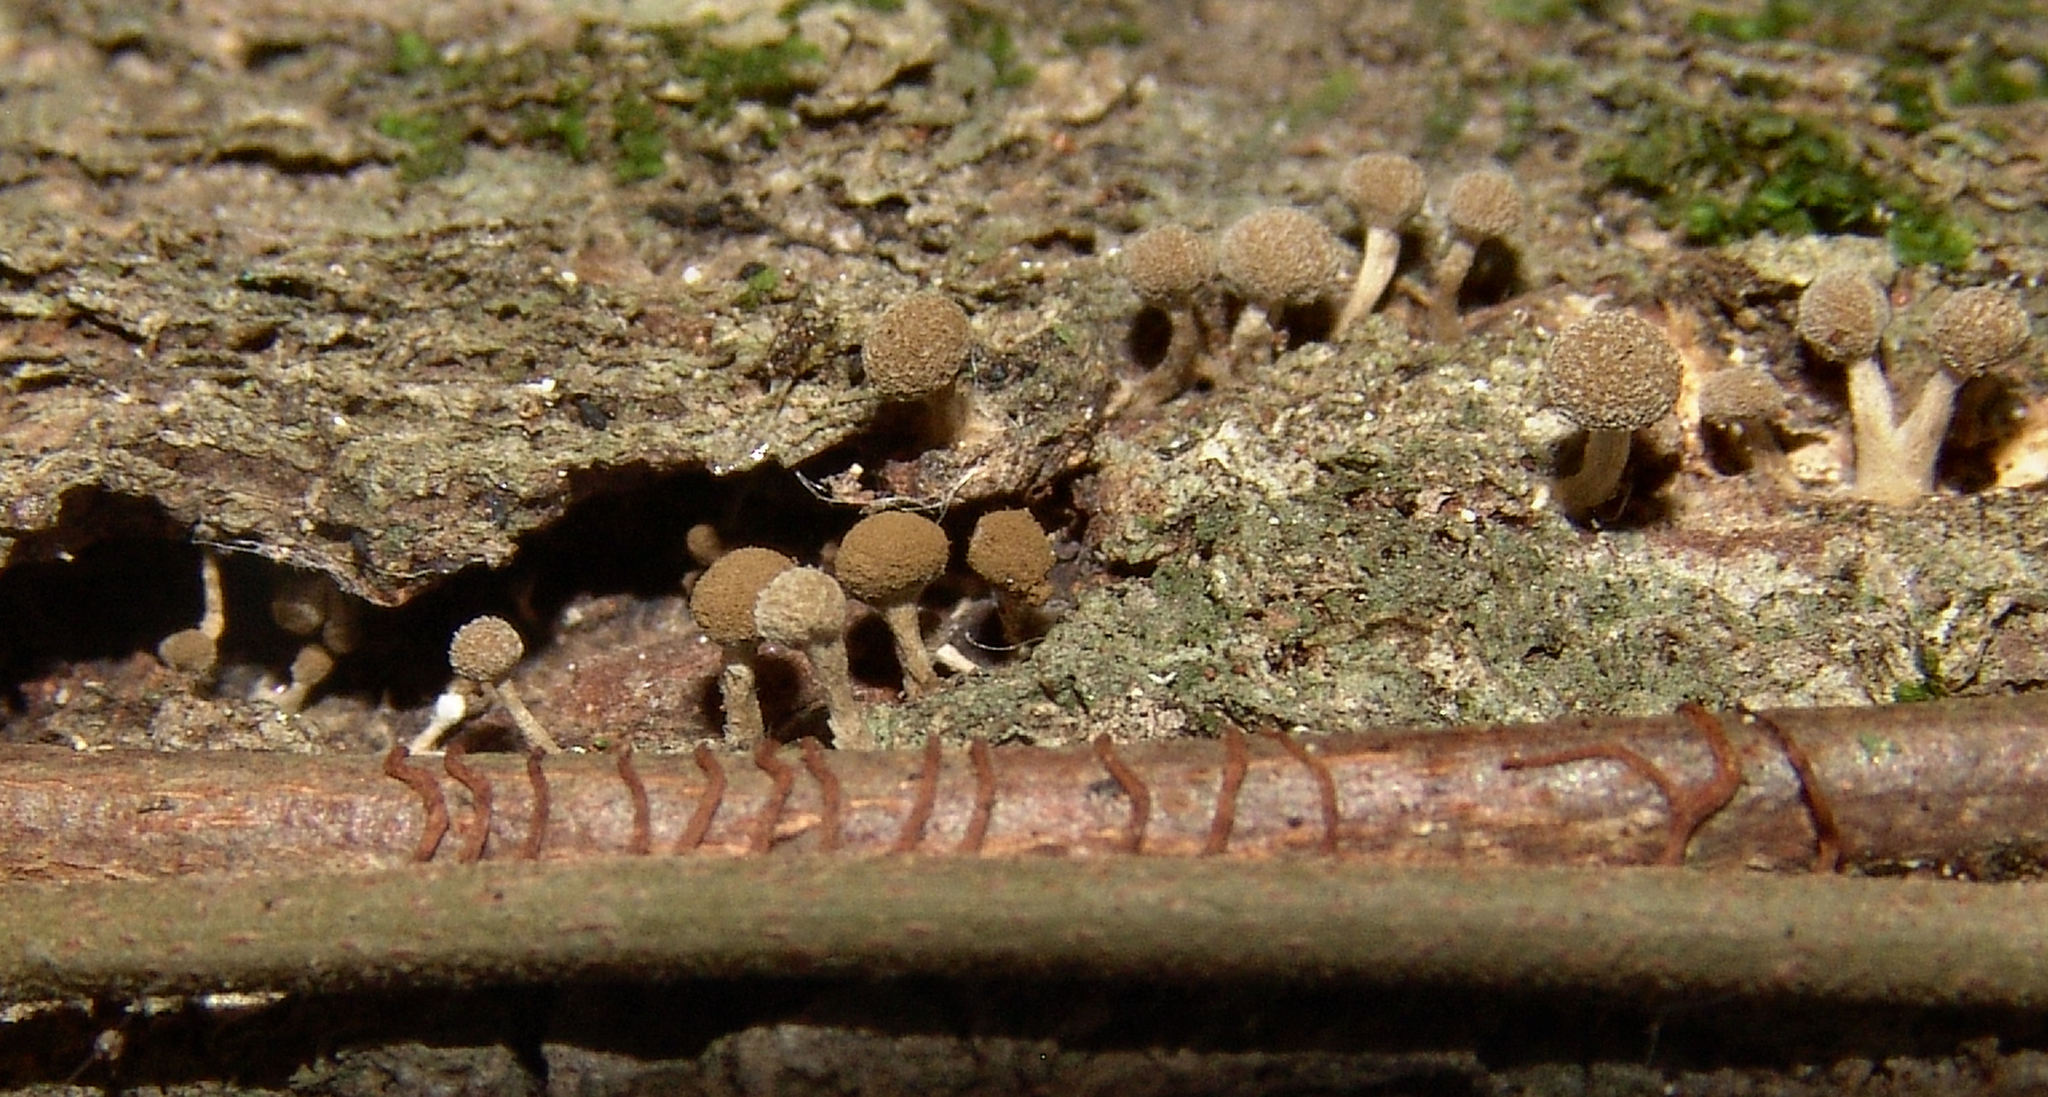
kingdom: Fungi
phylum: Basidiomycota
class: Atractiellomycetes
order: Atractiellales
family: Phleogenaceae
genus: Phleogena
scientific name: Phleogena faginea
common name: Fenugreek stalkball
